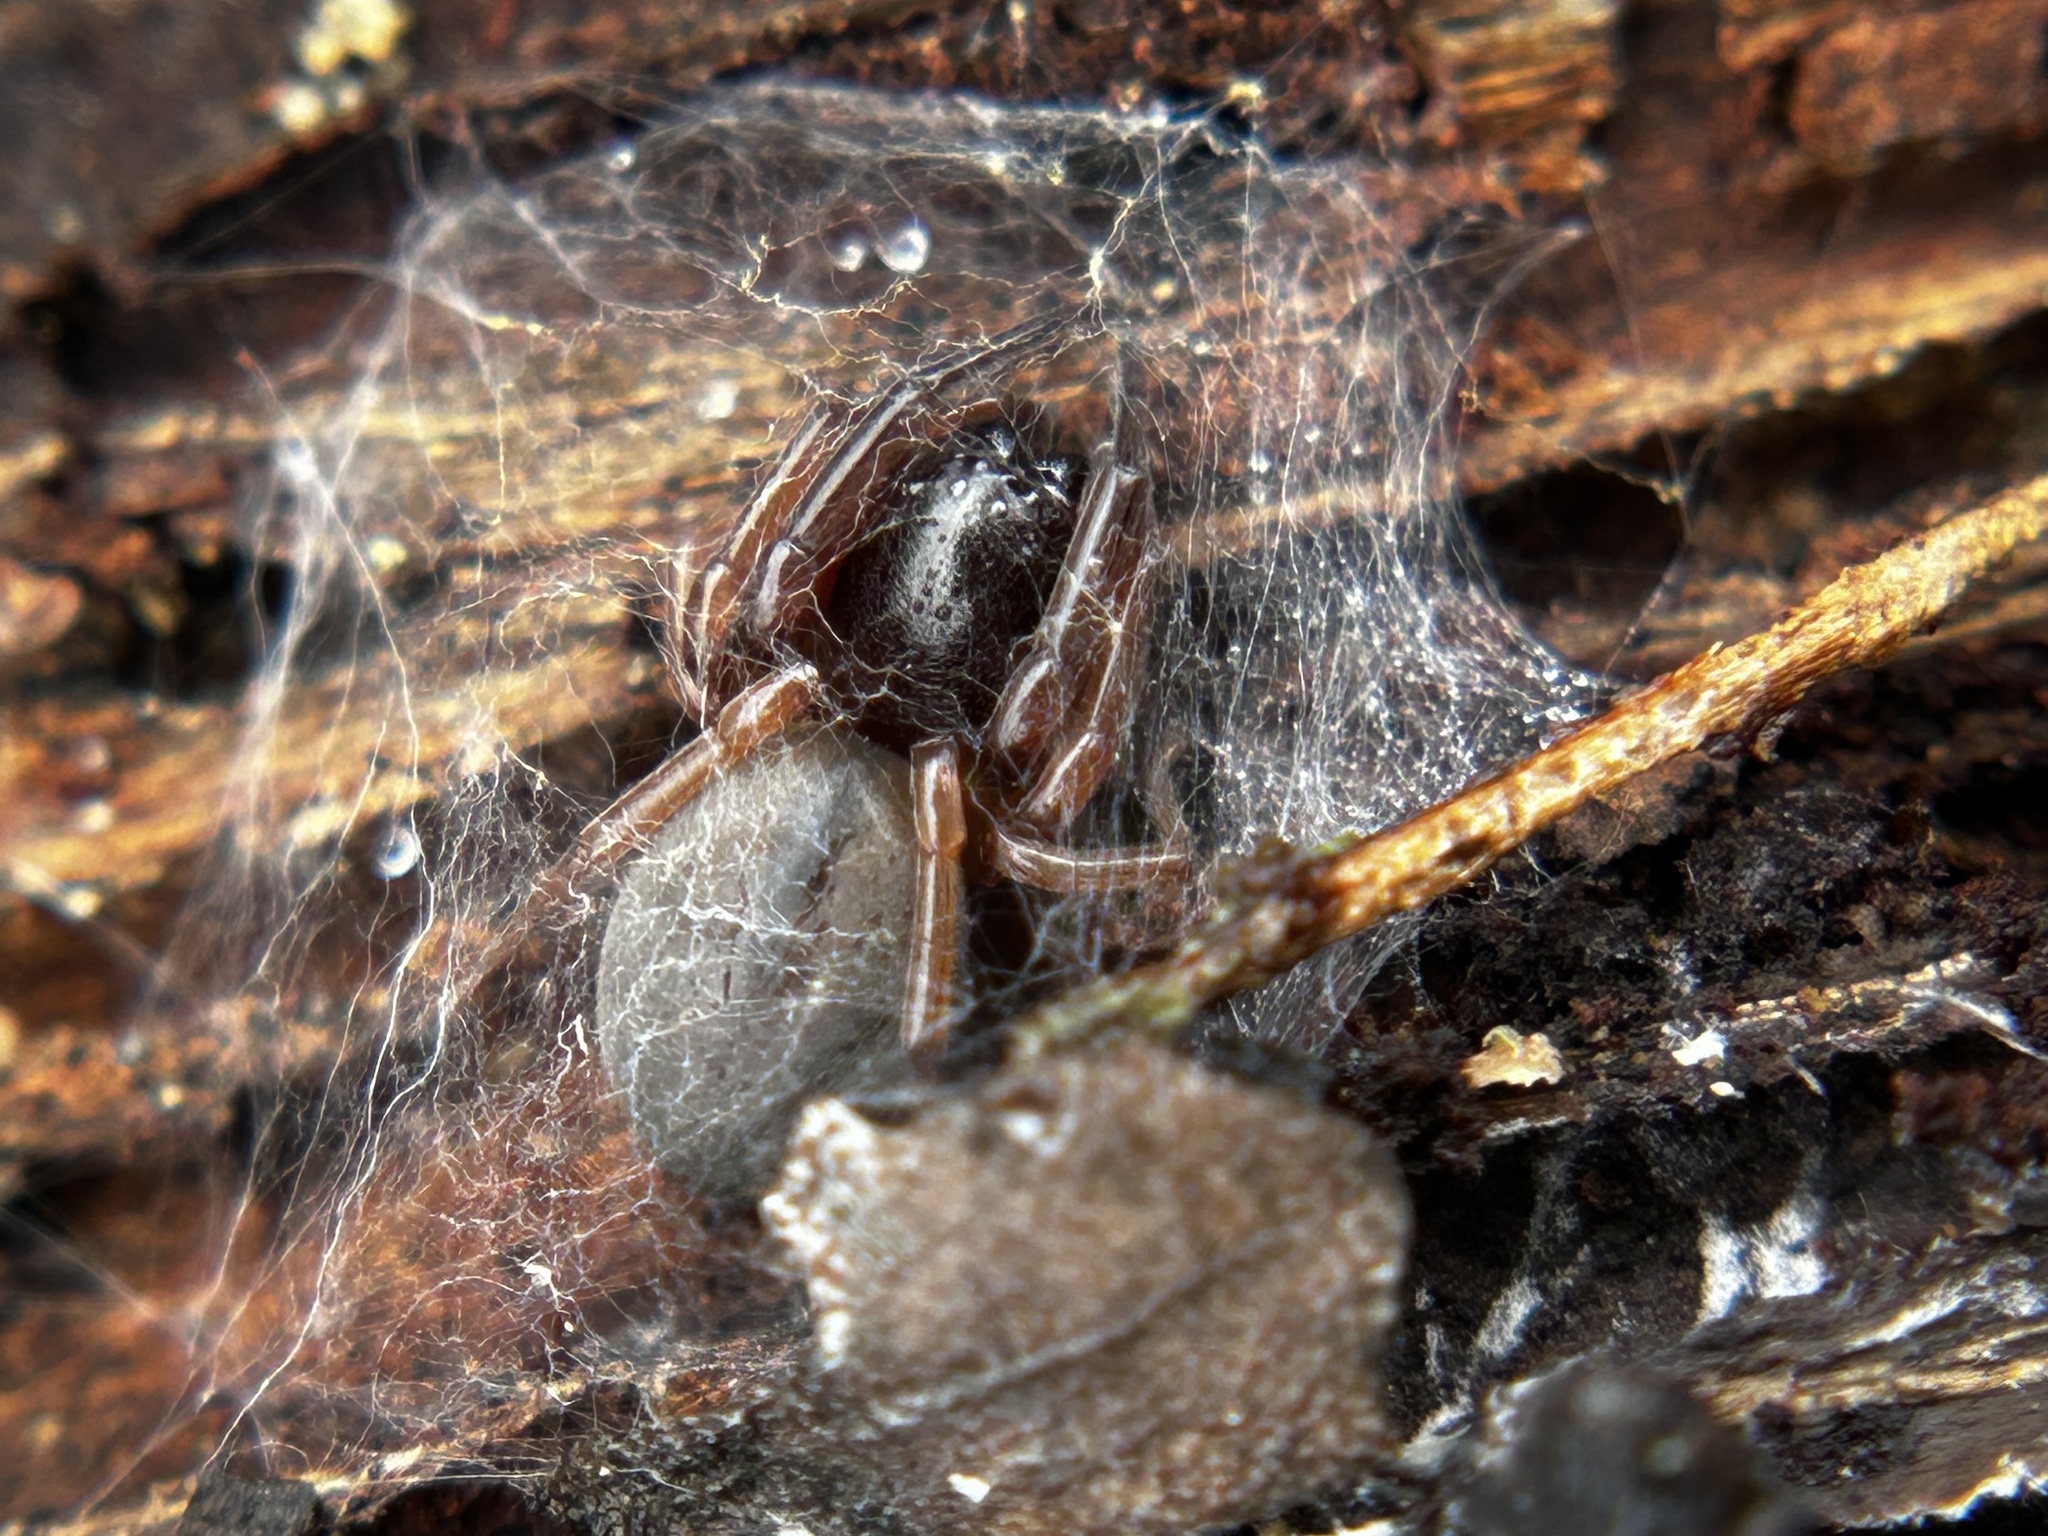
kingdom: Animalia
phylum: Arthropoda
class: Arachnida
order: Araneae
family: Trachelidae
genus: Trachelas
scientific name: Trachelas pacificus
